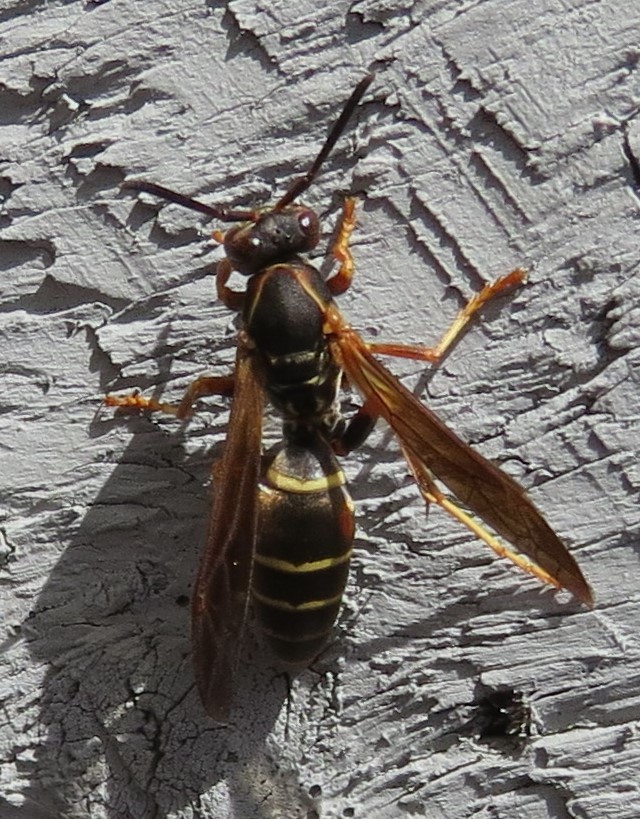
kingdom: Animalia
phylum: Arthropoda
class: Insecta
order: Hymenoptera
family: Eumenidae
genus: Polistes
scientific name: Polistes fuscatus
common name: Dark paper wasp
